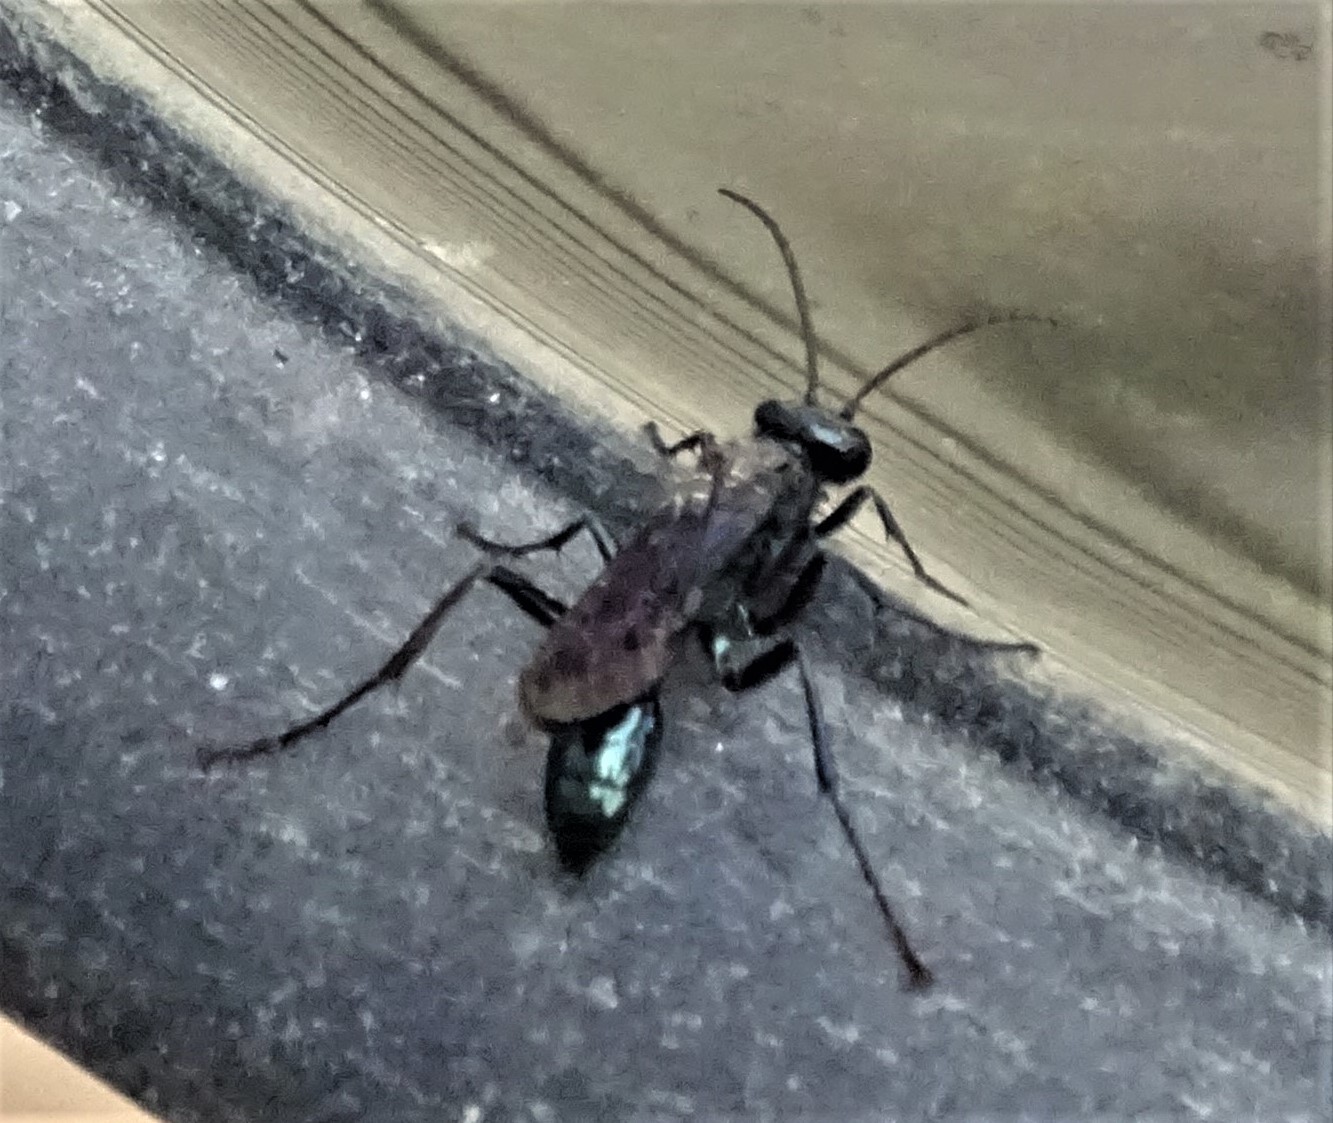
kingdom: Animalia
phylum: Arthropoda
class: Insecta
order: Hymenoptera
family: Sphecidae
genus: Chalybion
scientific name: Chalybion californicum
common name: Mud dauber
